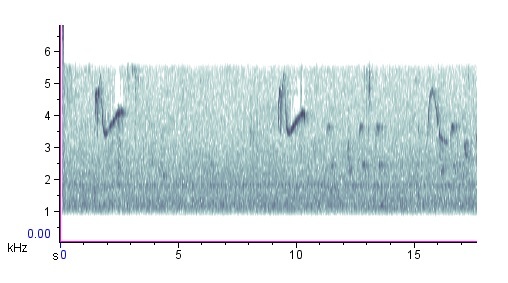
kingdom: Animalia
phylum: Chordata
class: Aves
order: Passeriformes
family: Tyrannidae
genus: Contopus
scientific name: Contopus virens
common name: Eastern wood-pewee
